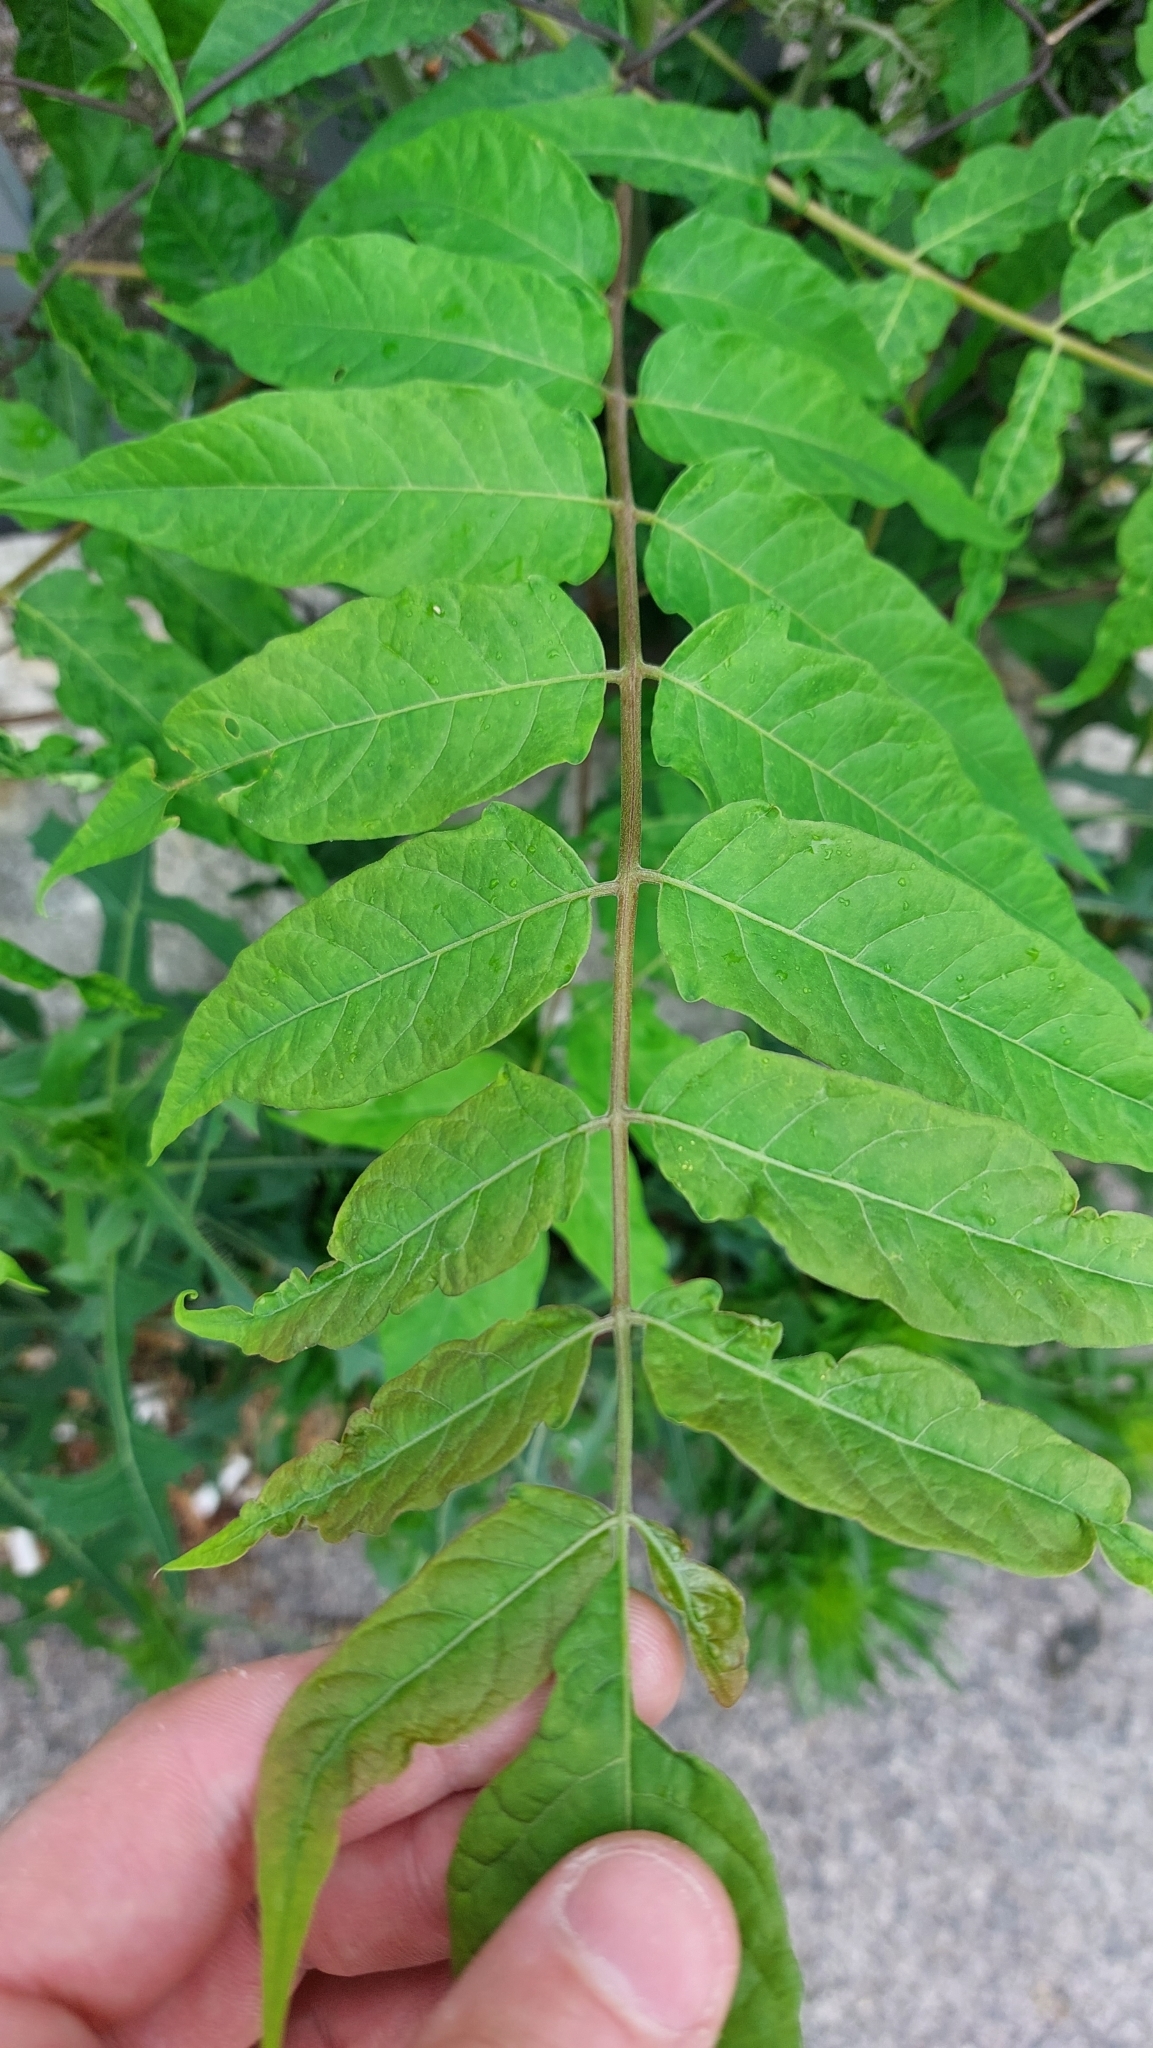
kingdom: Plantae
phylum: Tracheophyta
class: Magnoliopsida
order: Sapindales
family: Simaroubaceae
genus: Ailanthus
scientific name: Ailanthus altissima
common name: Tree-of-heaven
